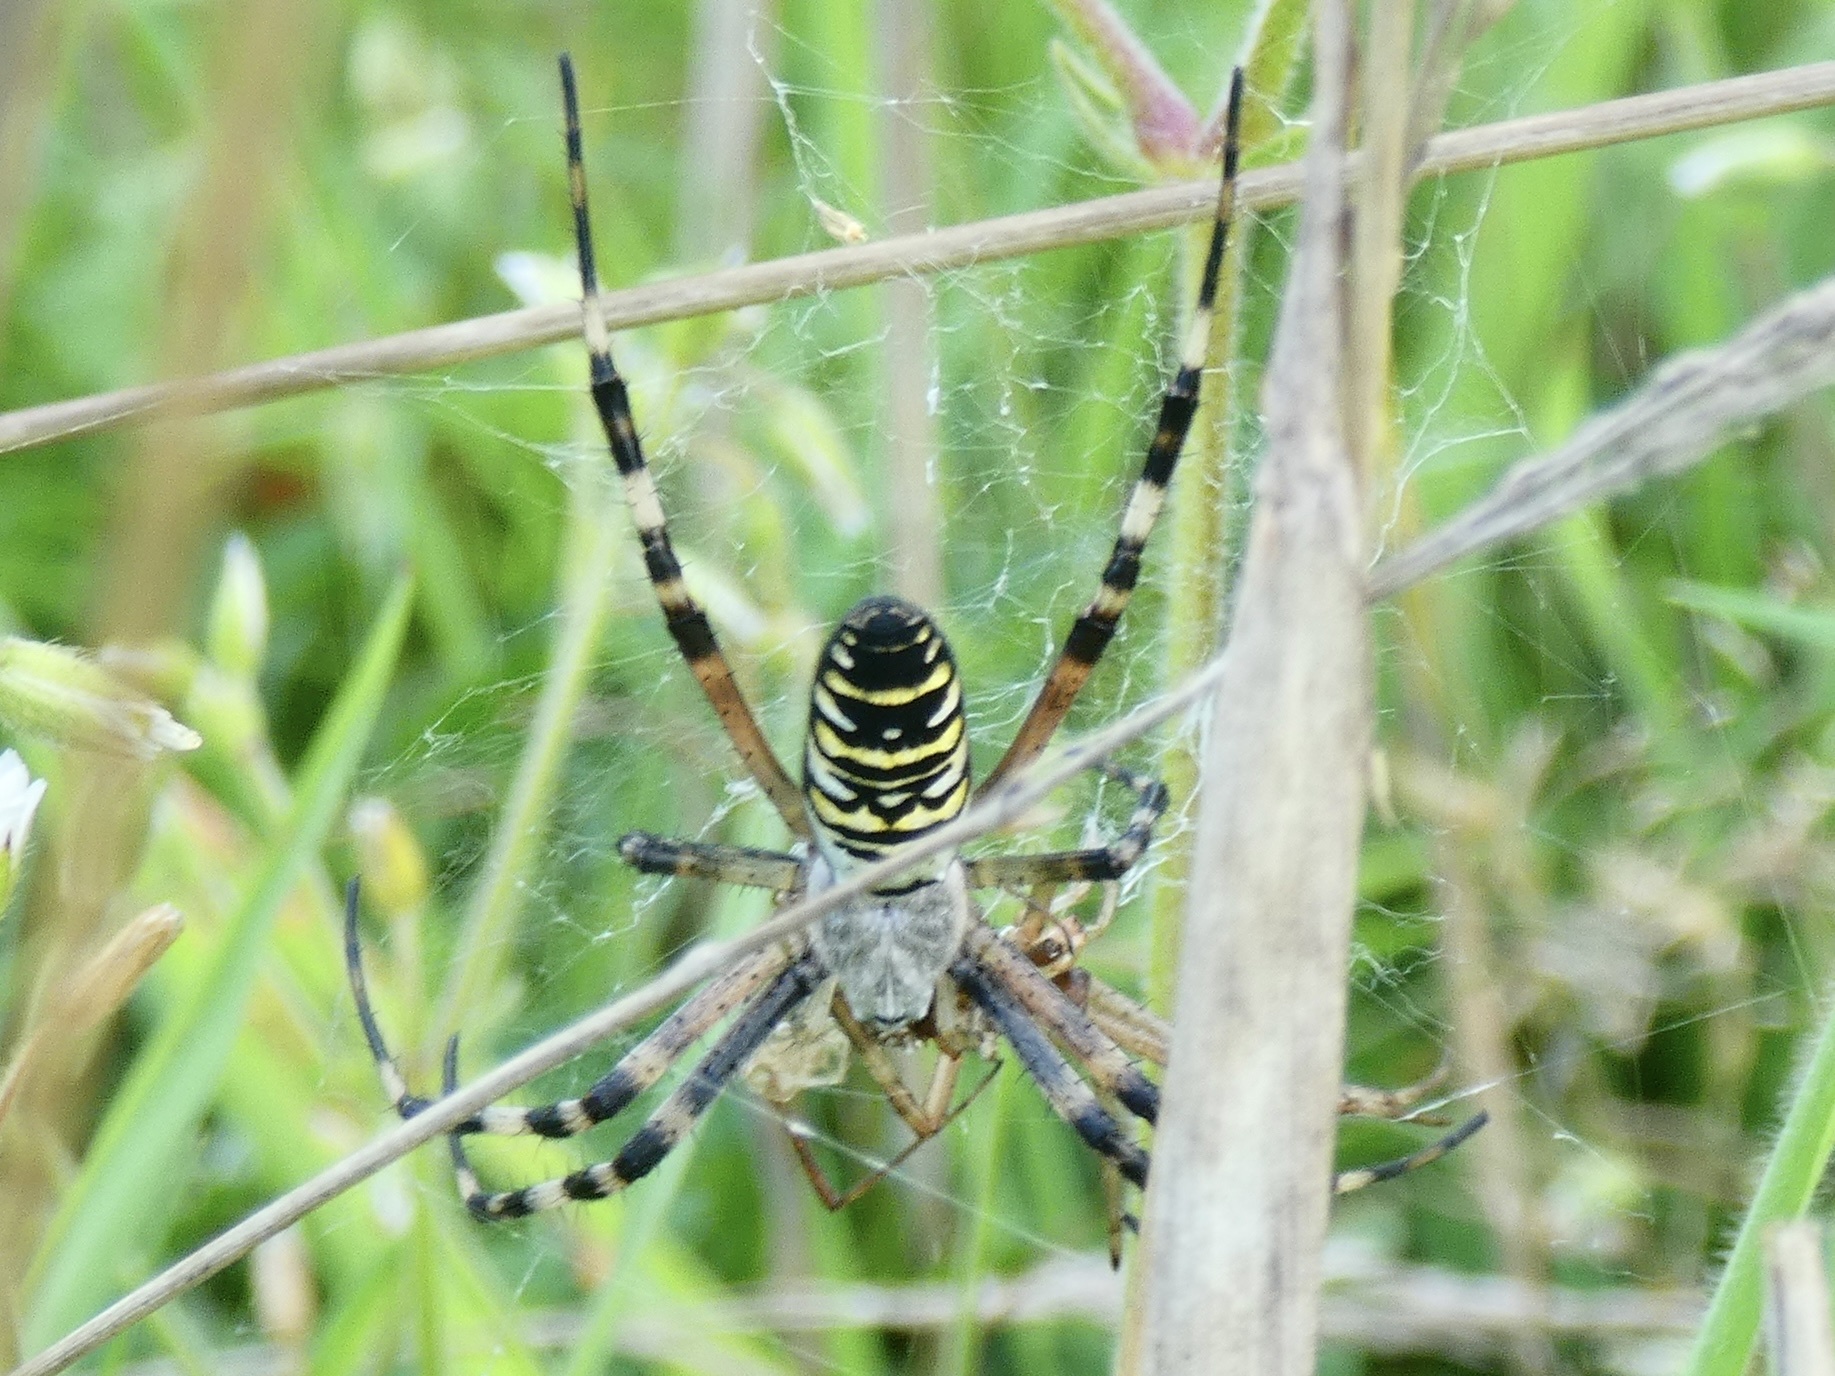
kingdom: Animalia
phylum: Arthropoda
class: Arachnida
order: Araneae
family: Araneidae
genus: Argiope
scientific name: Argiope bruennichi
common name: Wasp spider
